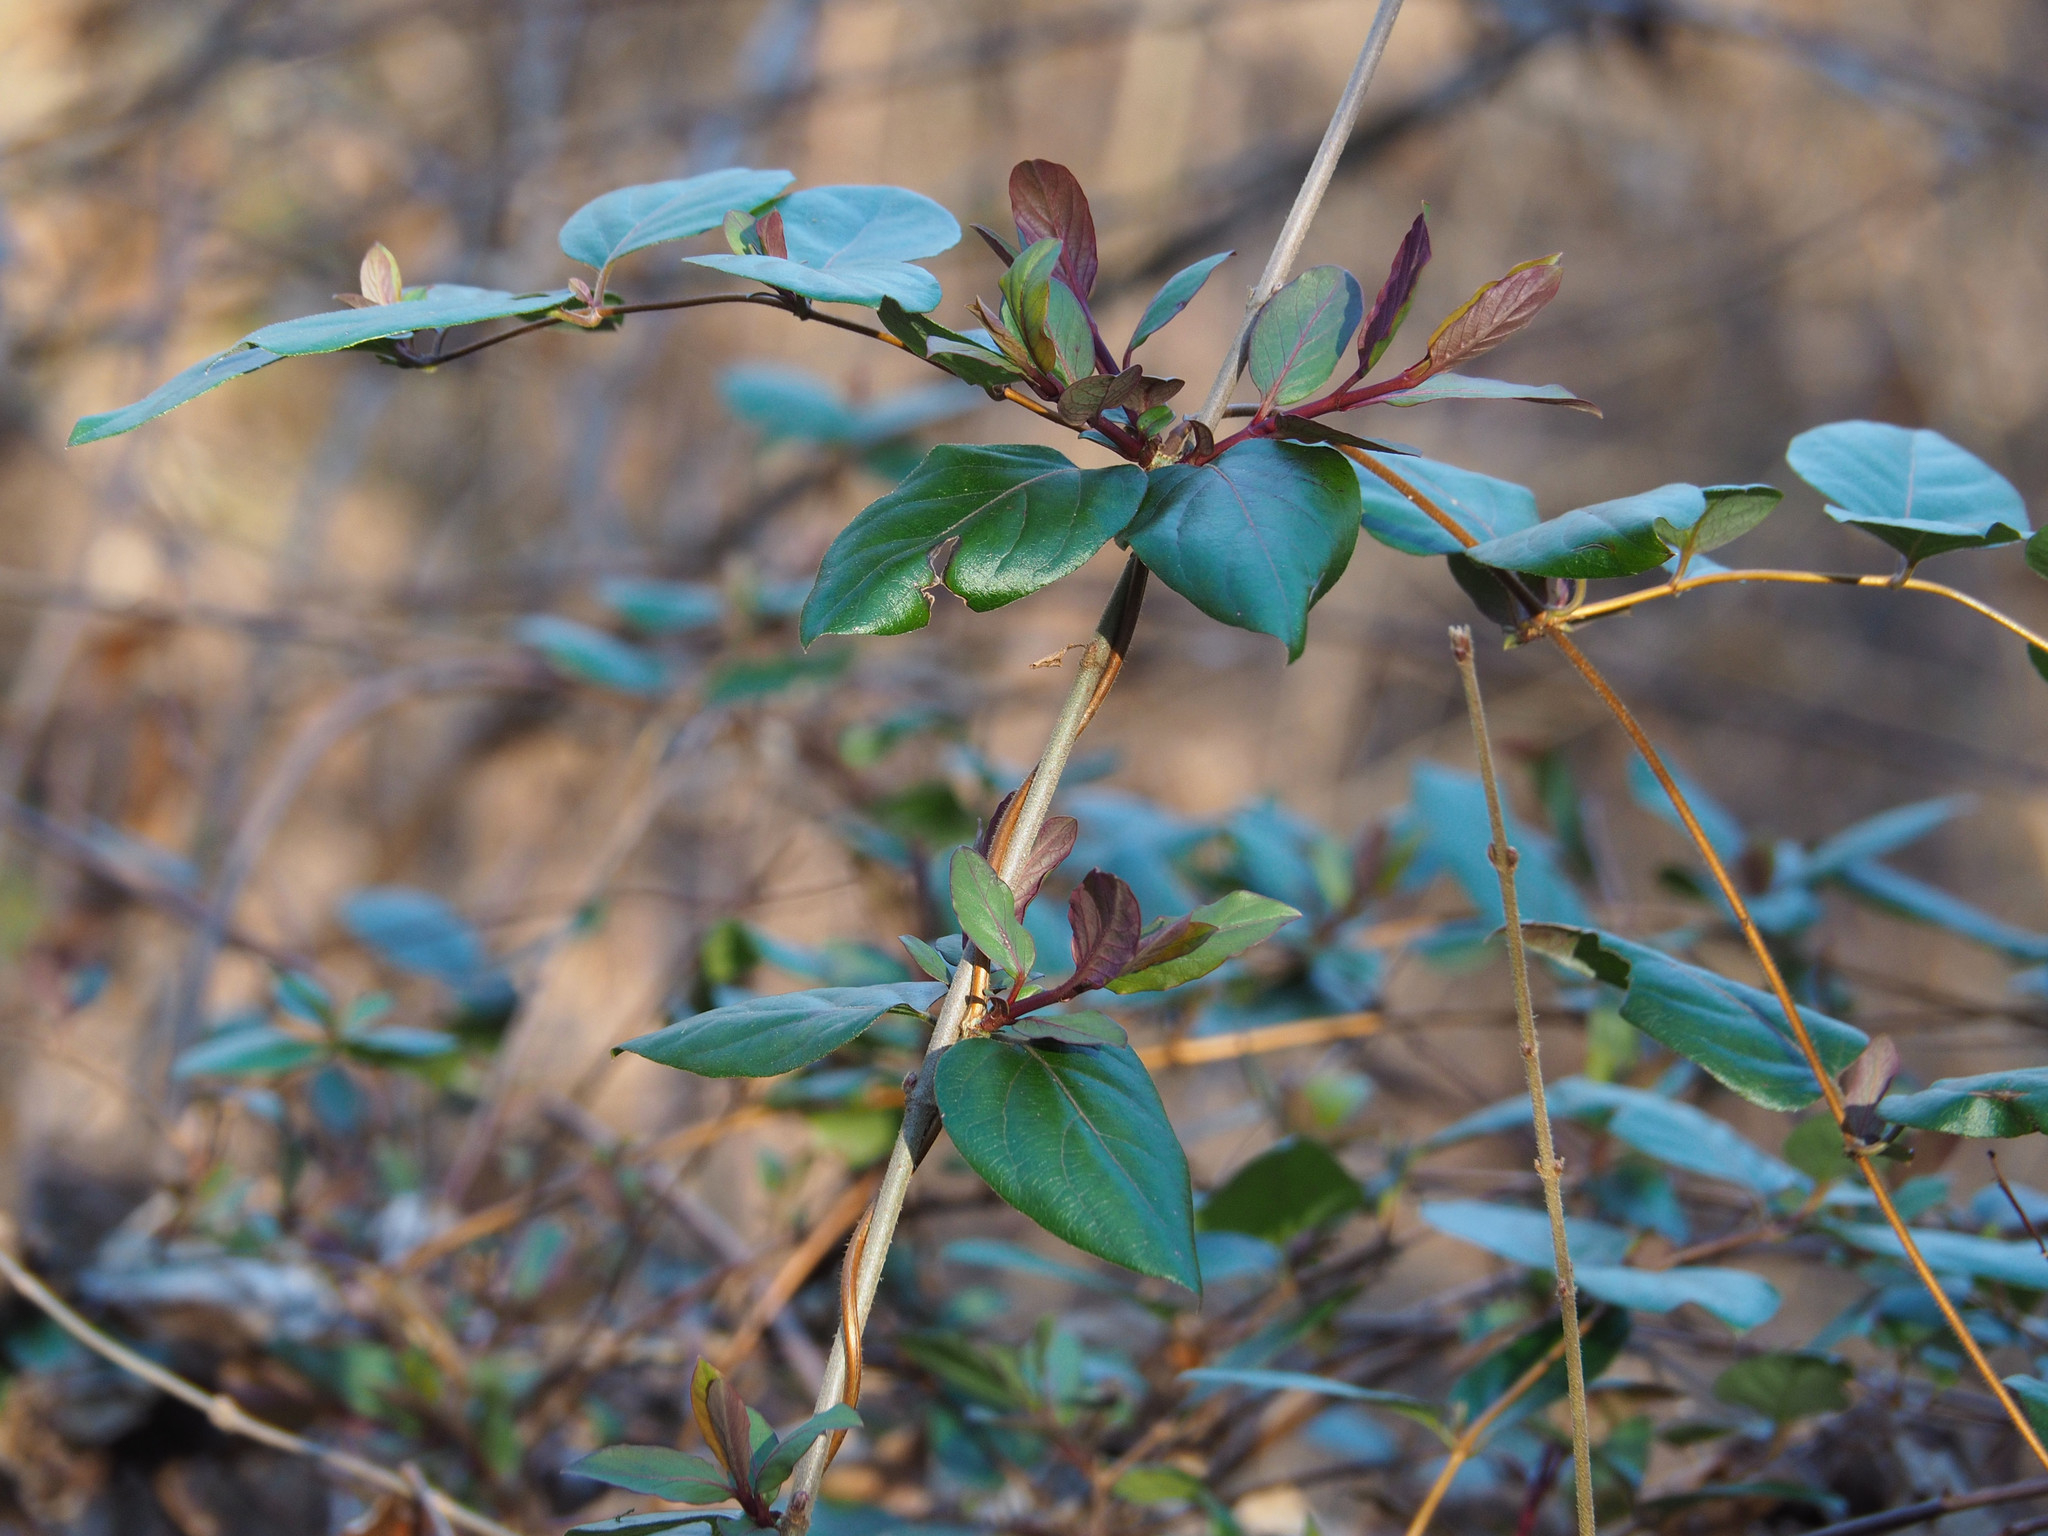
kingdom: Plantae
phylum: Tracheophyta
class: Magnoliopsida
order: Dipsacales
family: Caprifoliaceae
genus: Lonicera
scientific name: Lonicera japonica
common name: Japanese honeysuckle
